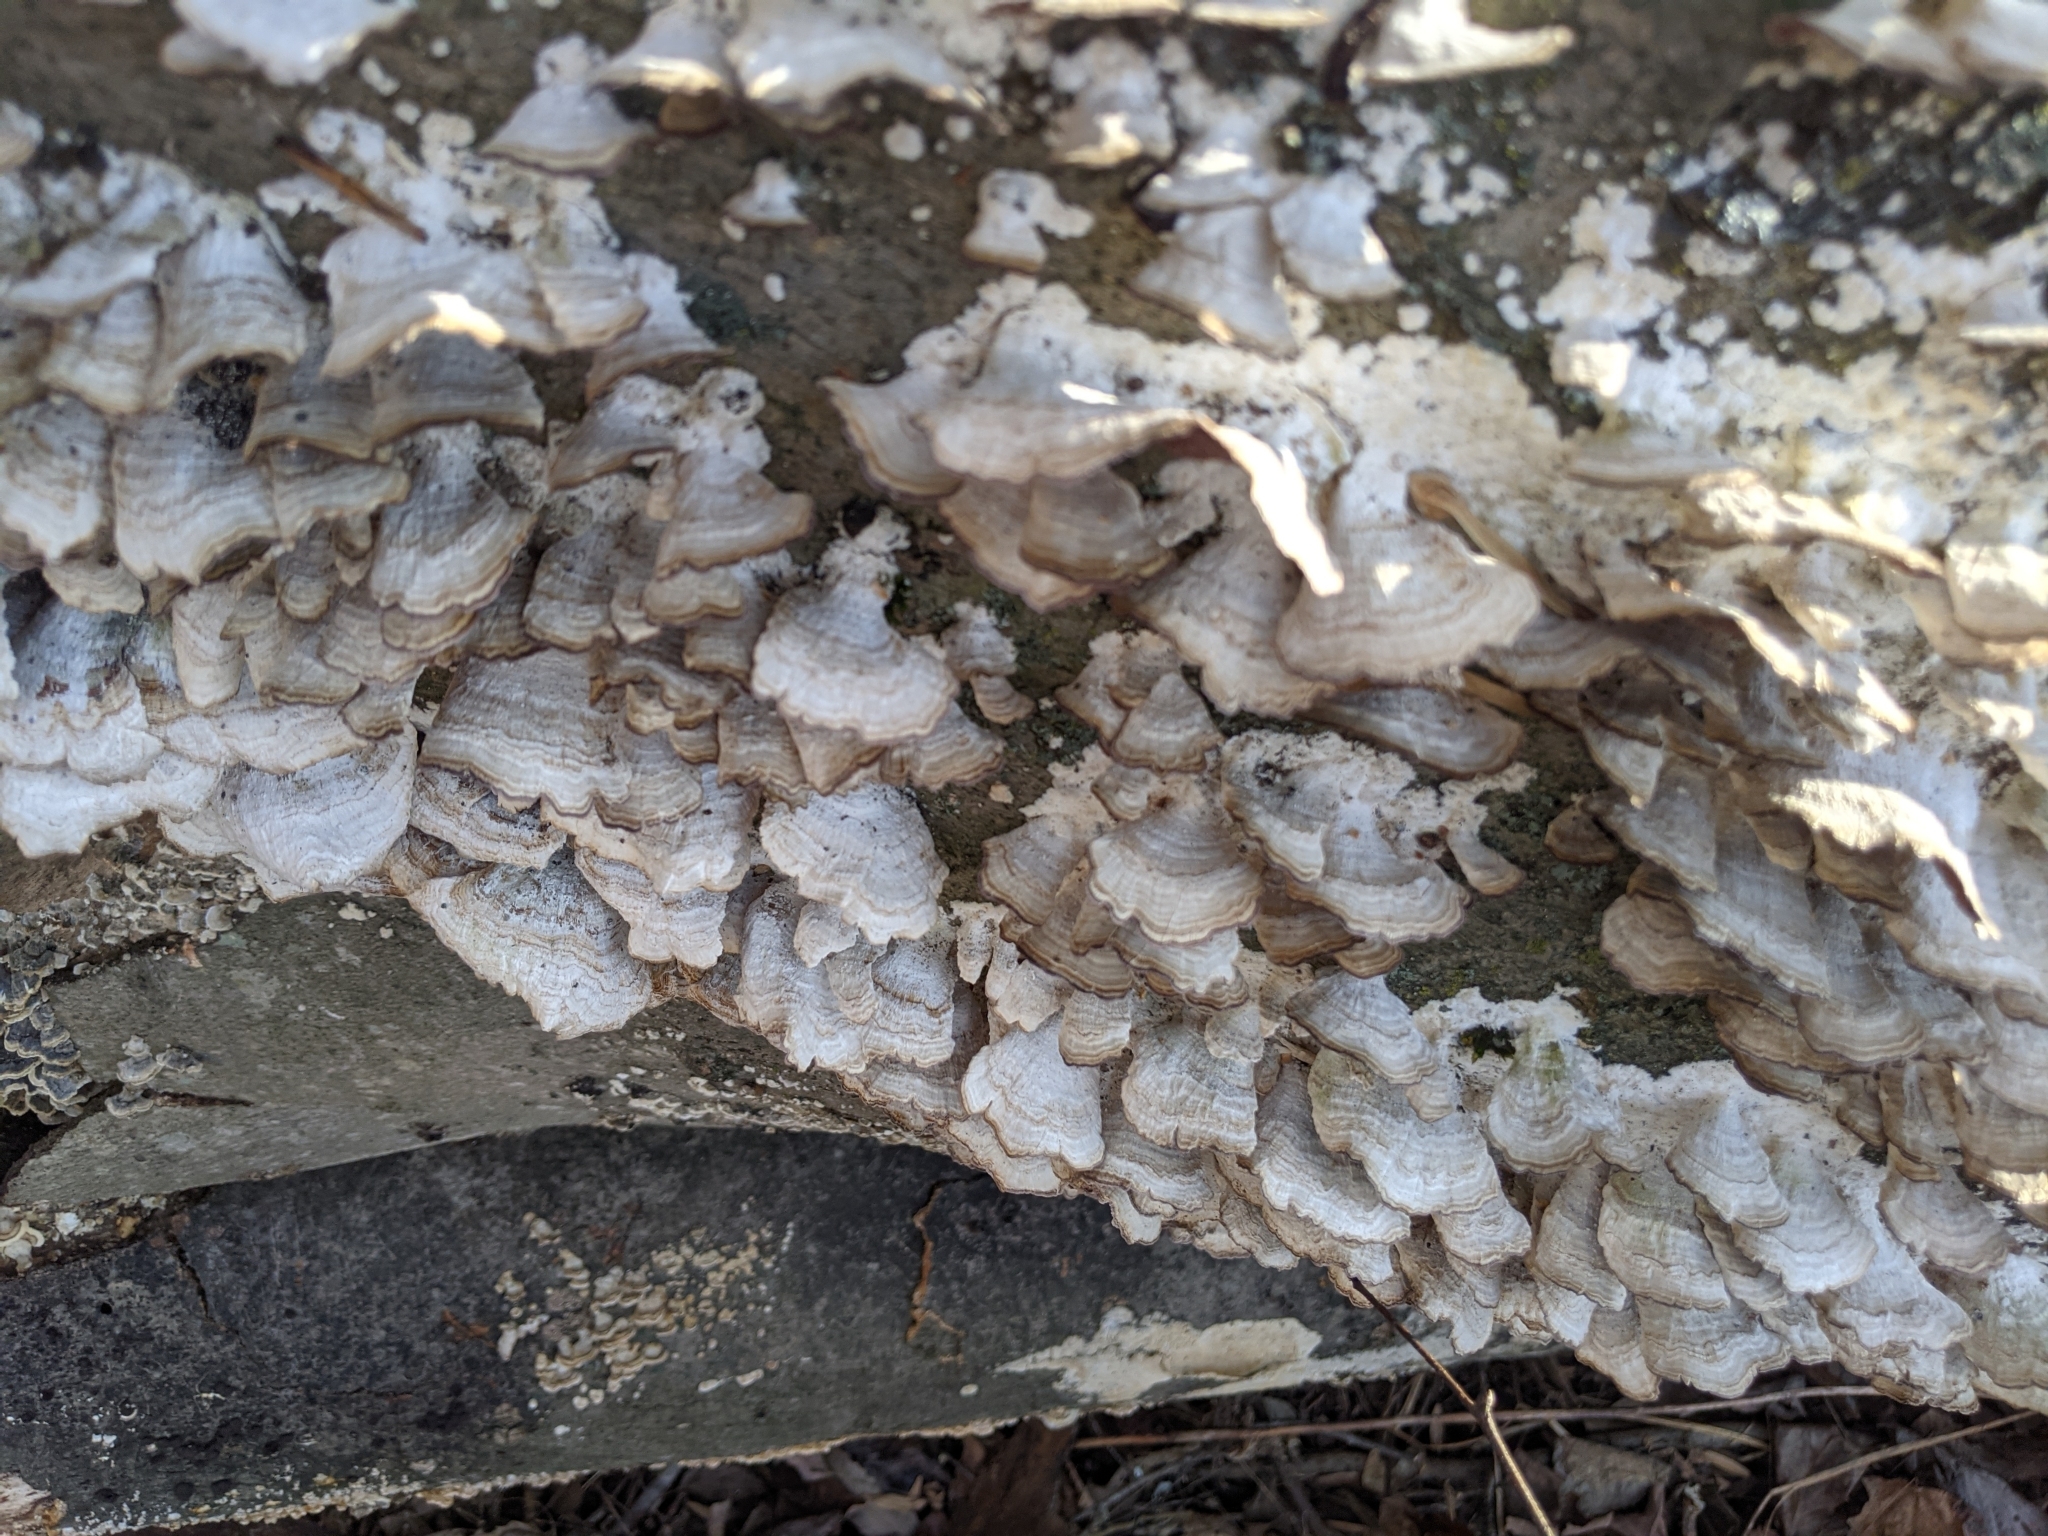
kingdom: Fungi
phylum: Basidiomycota
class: Agaricomycetes
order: Hymenochaetales
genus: Trichaptum
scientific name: Trichaptum biforme
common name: Violet-toothed polypore
